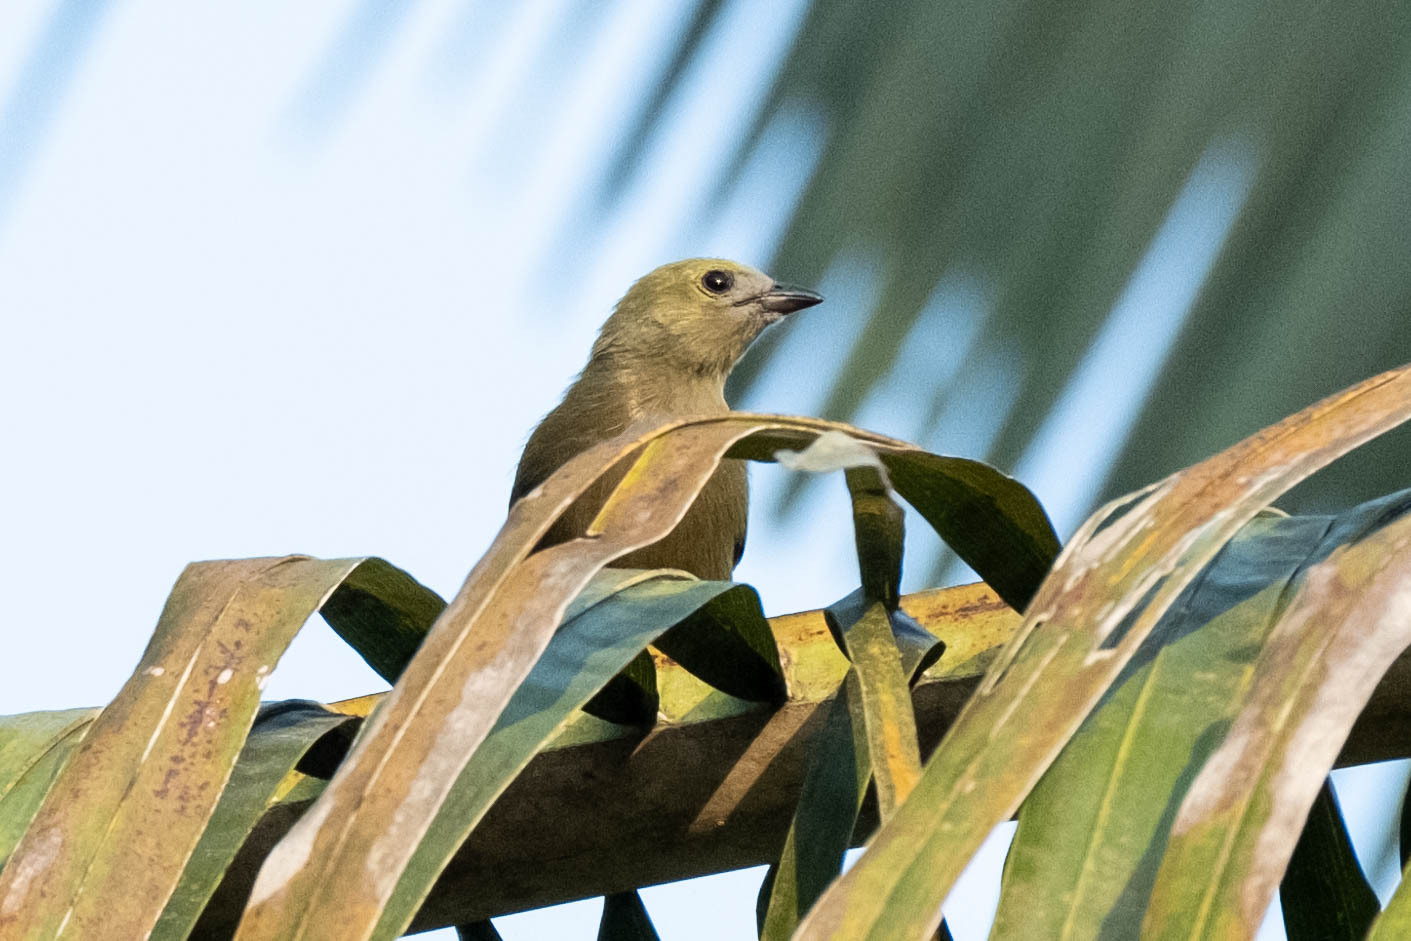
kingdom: Animalia
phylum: Chordata
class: Aves
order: Passeriformes
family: Thraupidae
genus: Thraupis
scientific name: Thraupis palmarum
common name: Palm tanager
